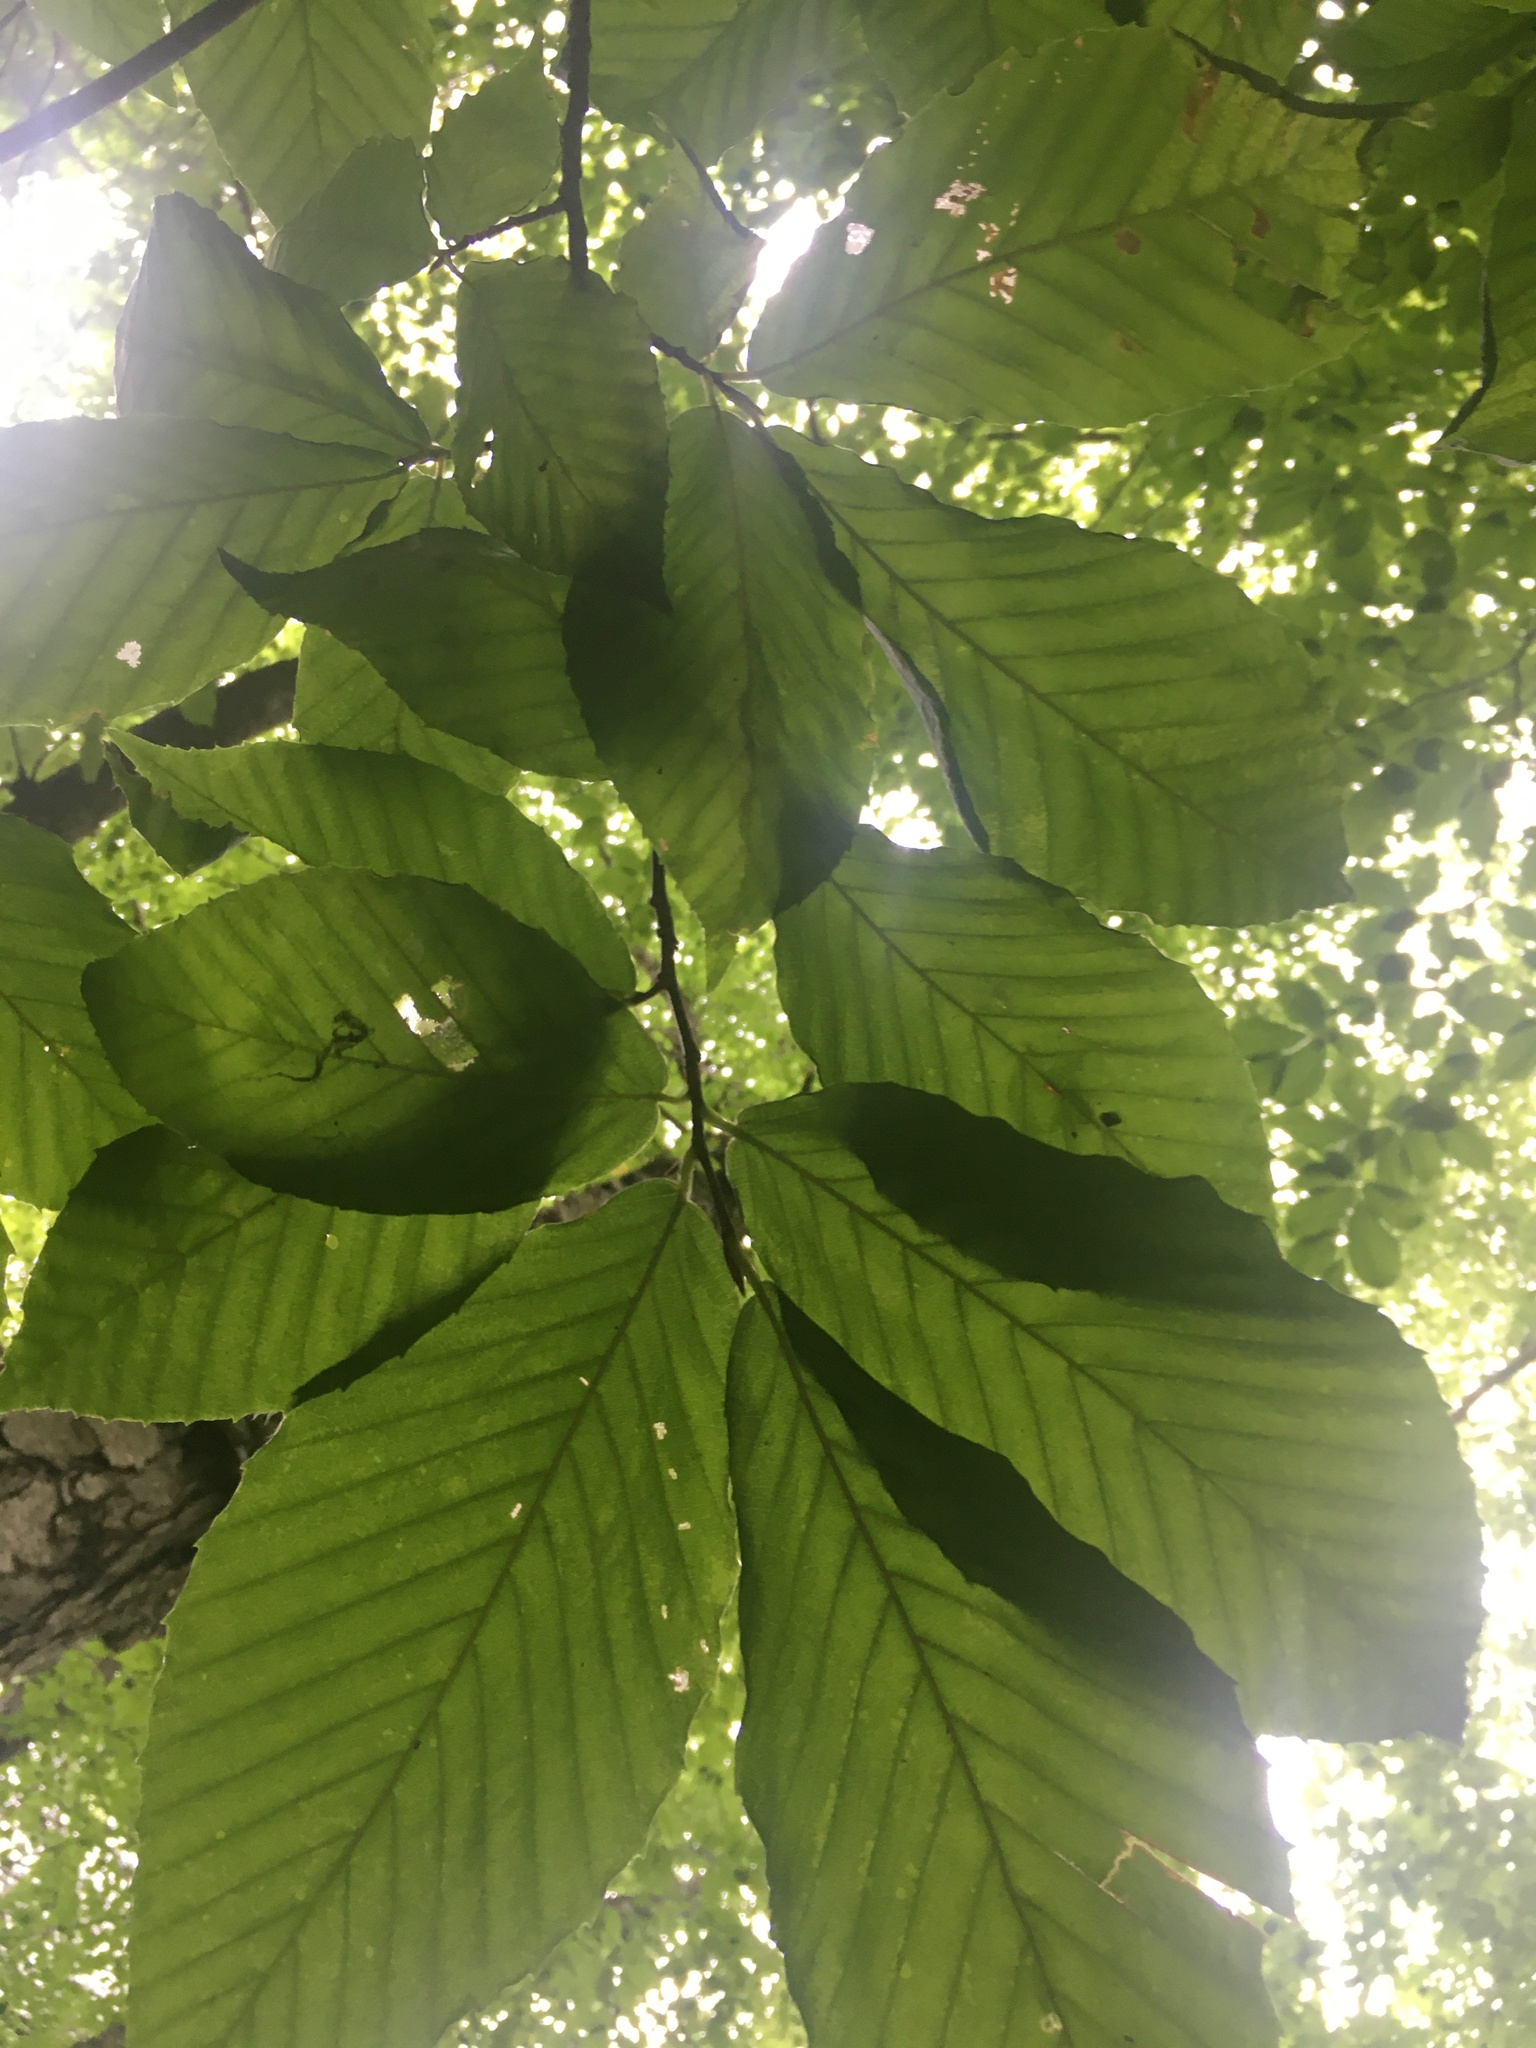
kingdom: Plantae
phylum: Tracheophyta
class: Magnoliopsida
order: Fagales
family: Fagaceae
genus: Fagus
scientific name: Fagus grandifolia
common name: American beech
